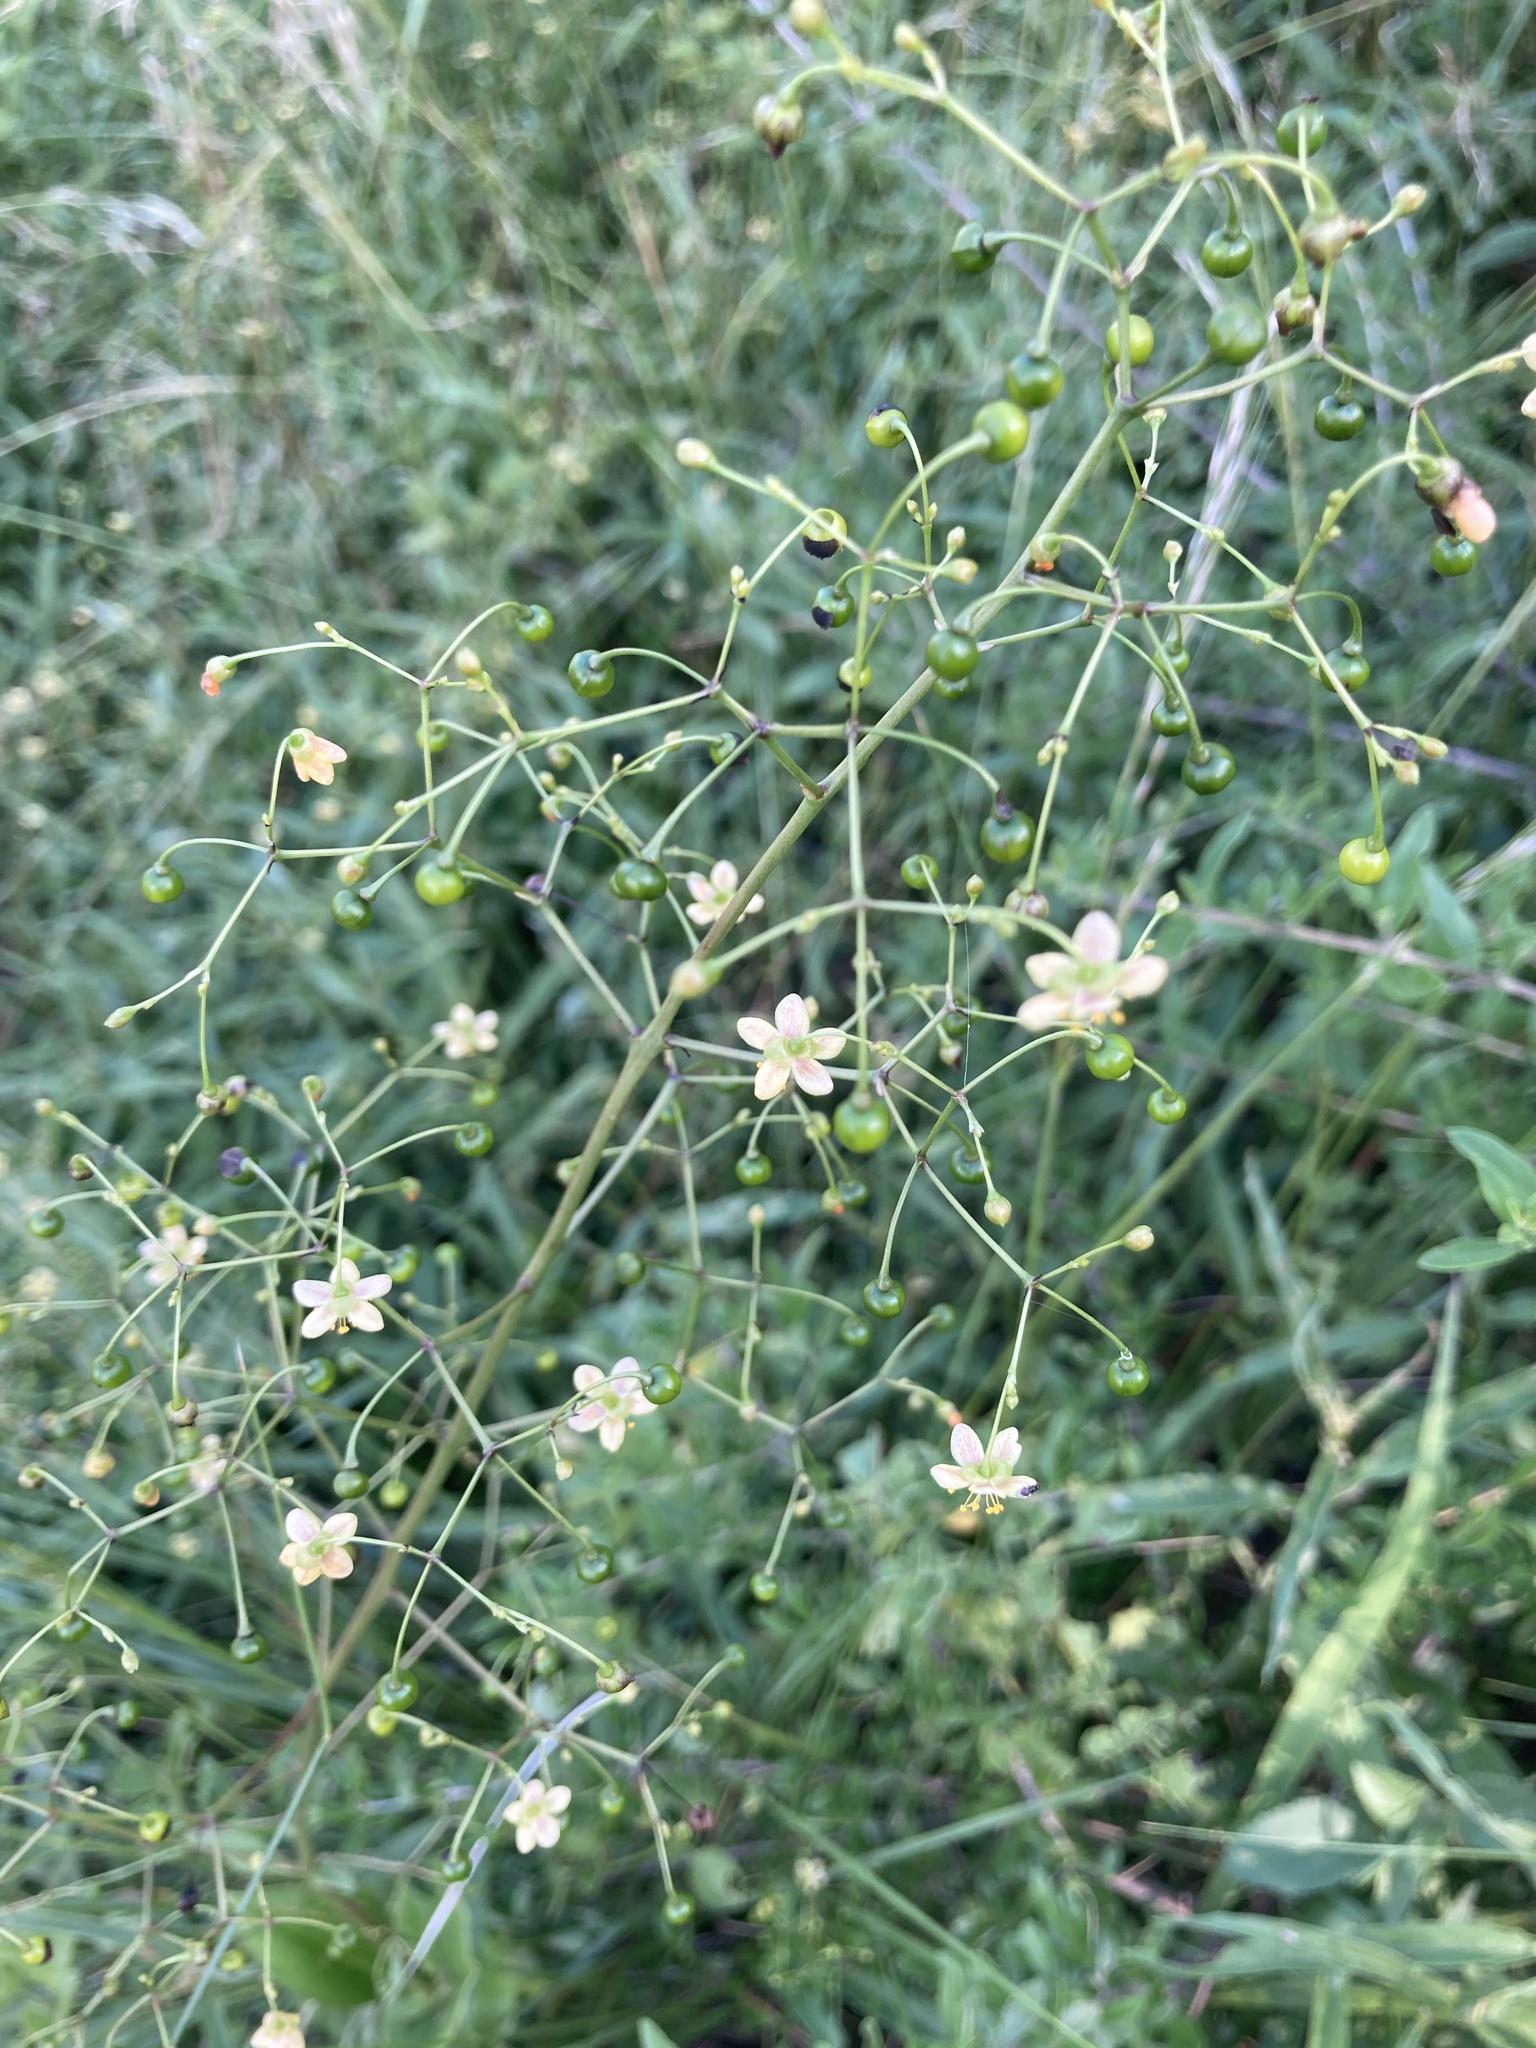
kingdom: Plantae
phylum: Tracheophyta
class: Magnoliopsida
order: Caryophyllales
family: Talinaceae
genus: Talinum
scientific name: Talinum paniculatum
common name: Jewels of opar
